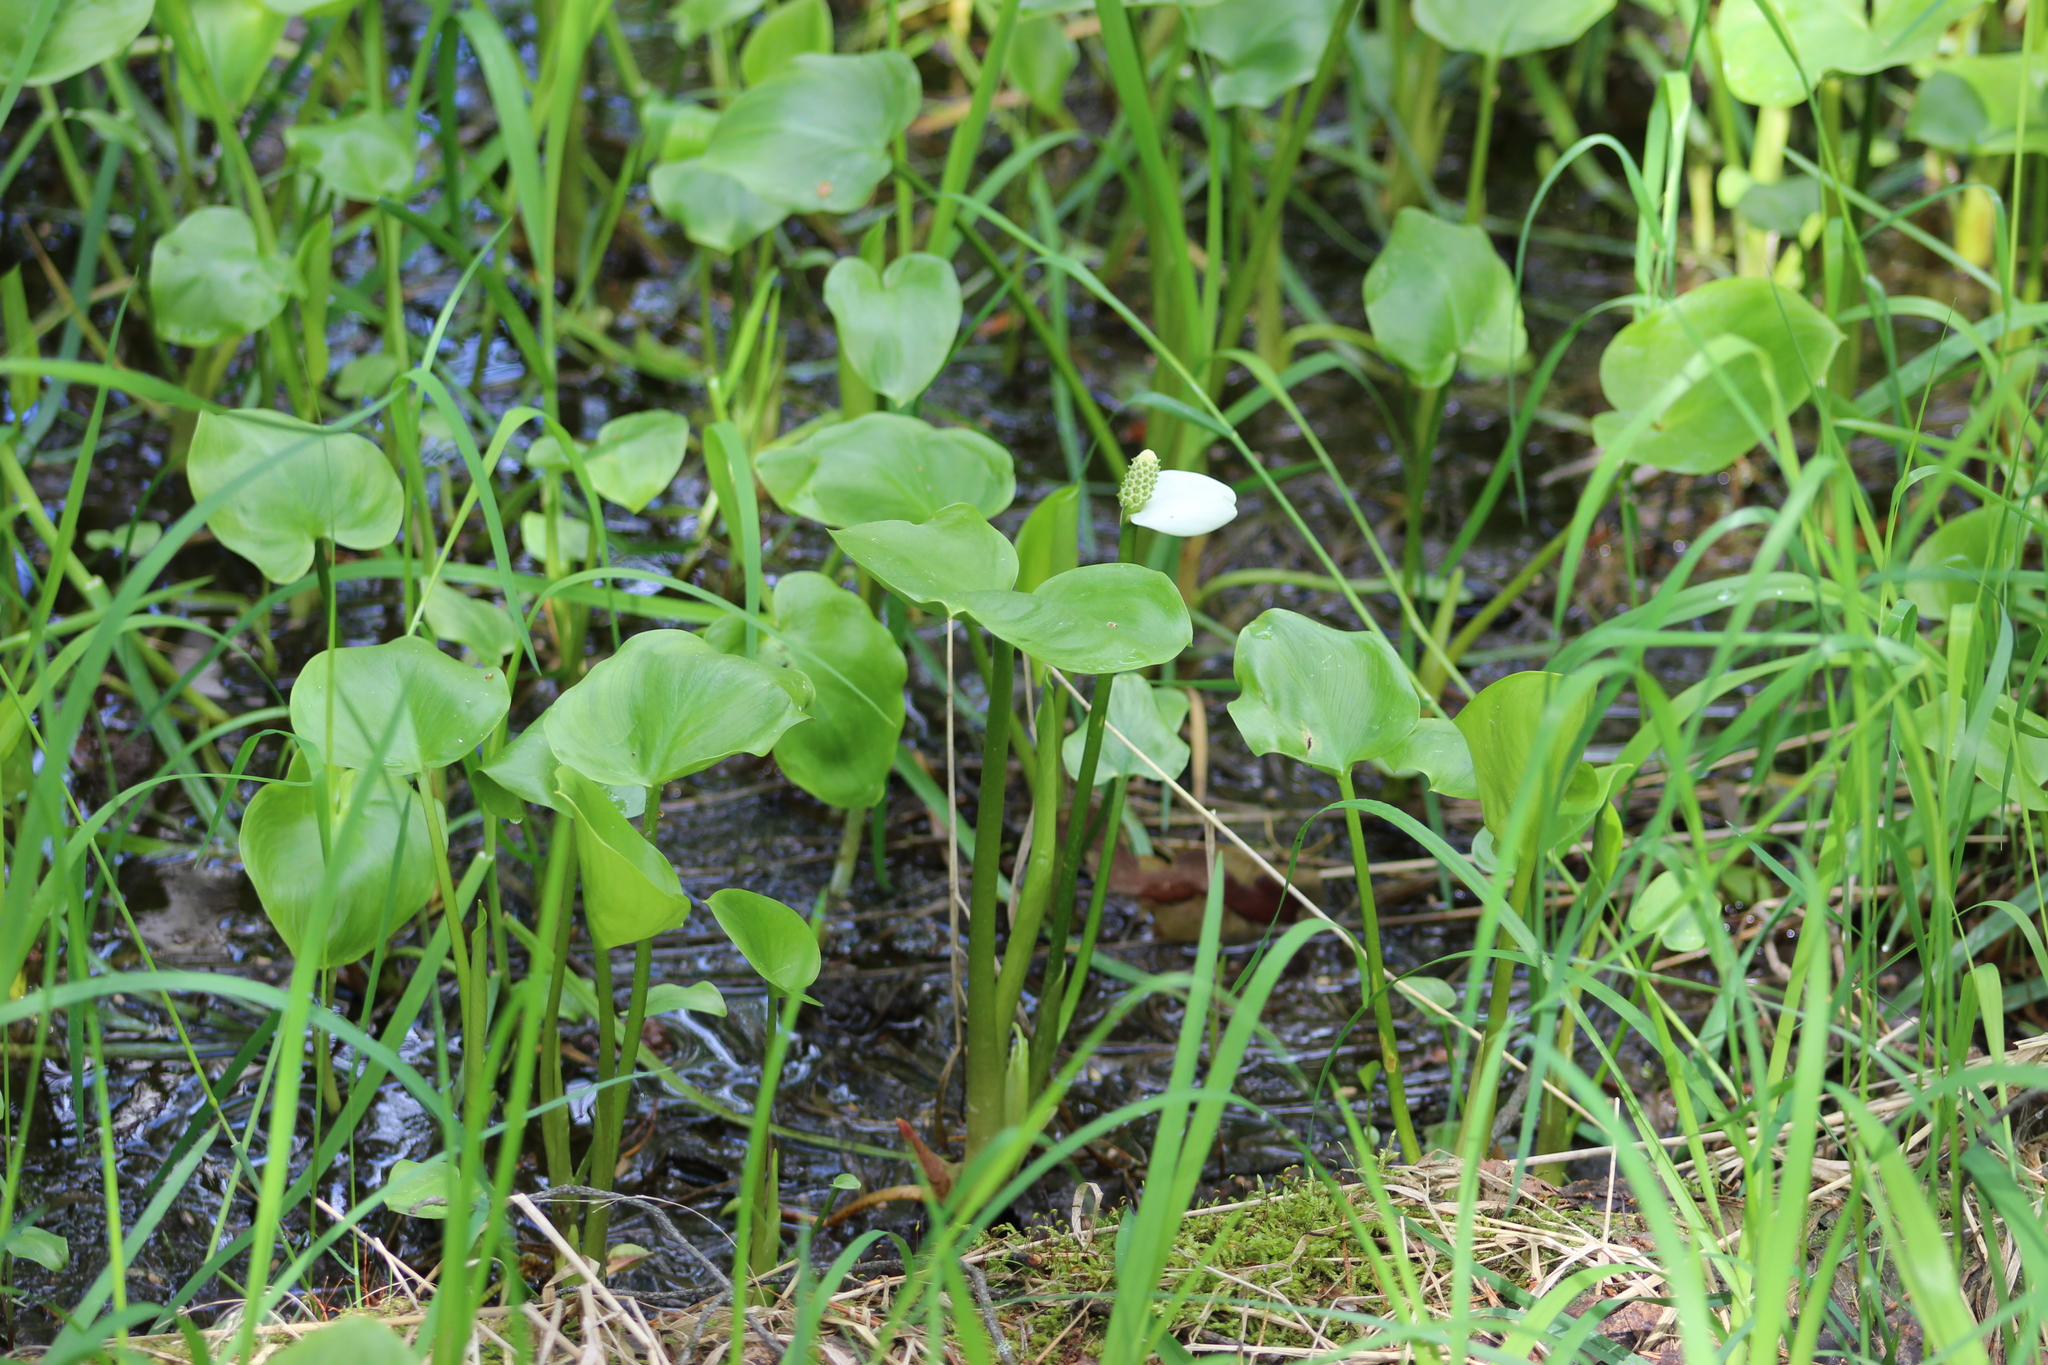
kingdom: Plantae
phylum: Tracheophyta
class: Liliopsida
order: Alismatales
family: Araceae
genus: Calla
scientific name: Calla palustris
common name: Bog arum
